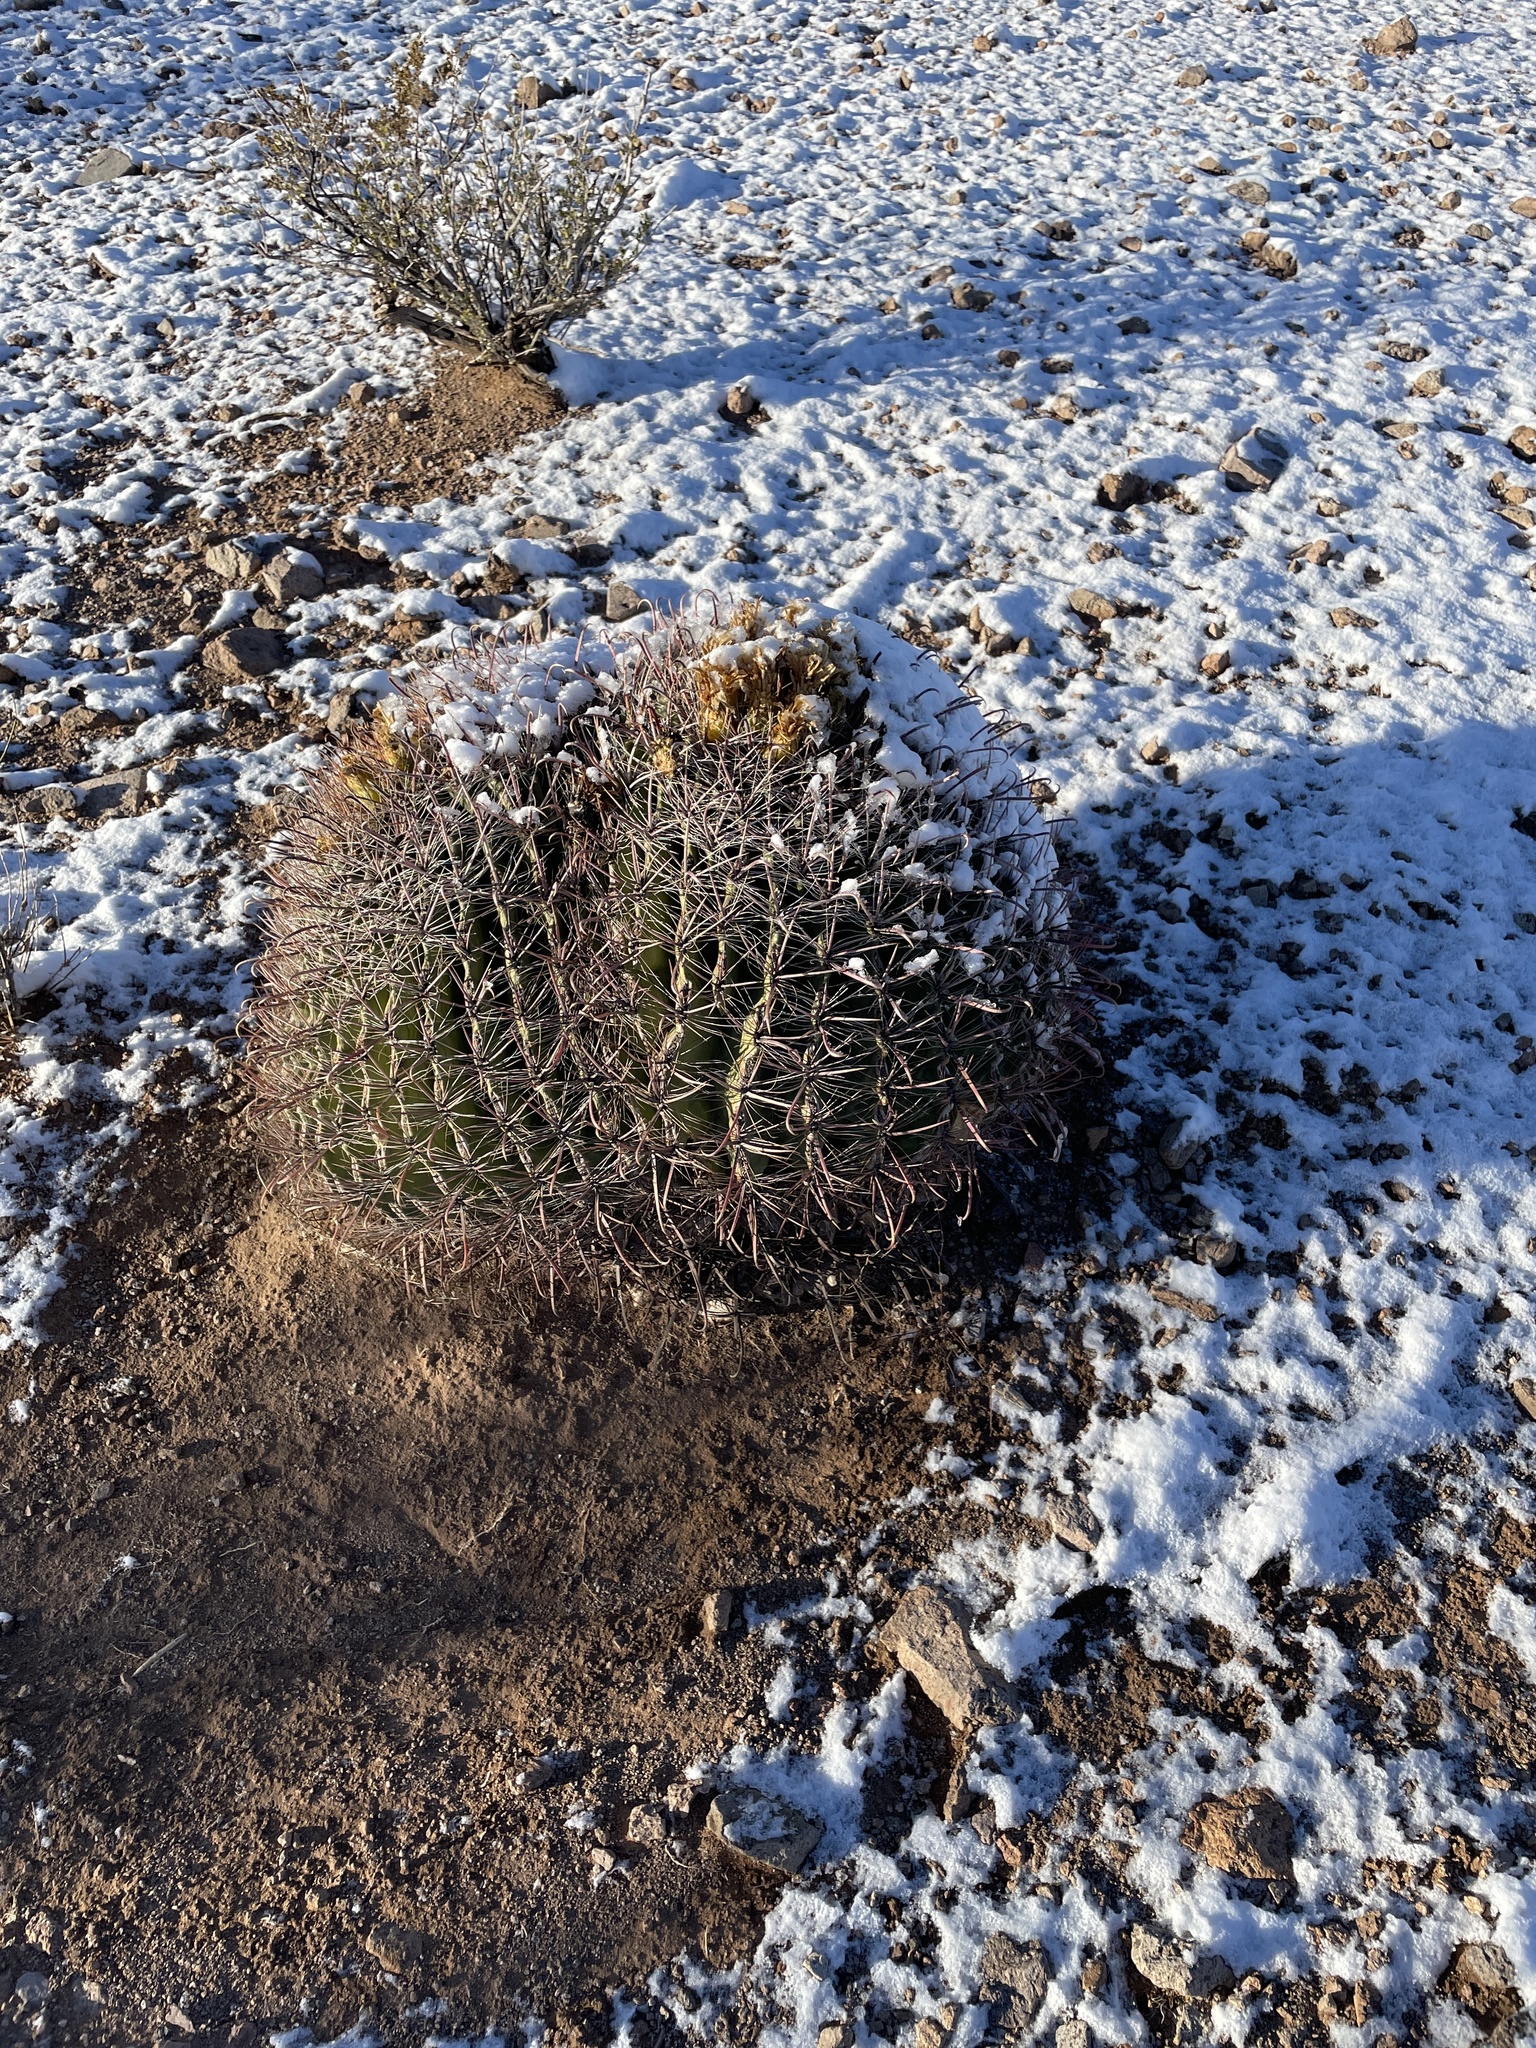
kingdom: Plantae
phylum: Tracheophyta
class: Magnoliopsida
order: Caryophyllales
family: Cactaceae
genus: Ferocactus
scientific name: Ferocactus wislizeni
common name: Candy barrel cactus
